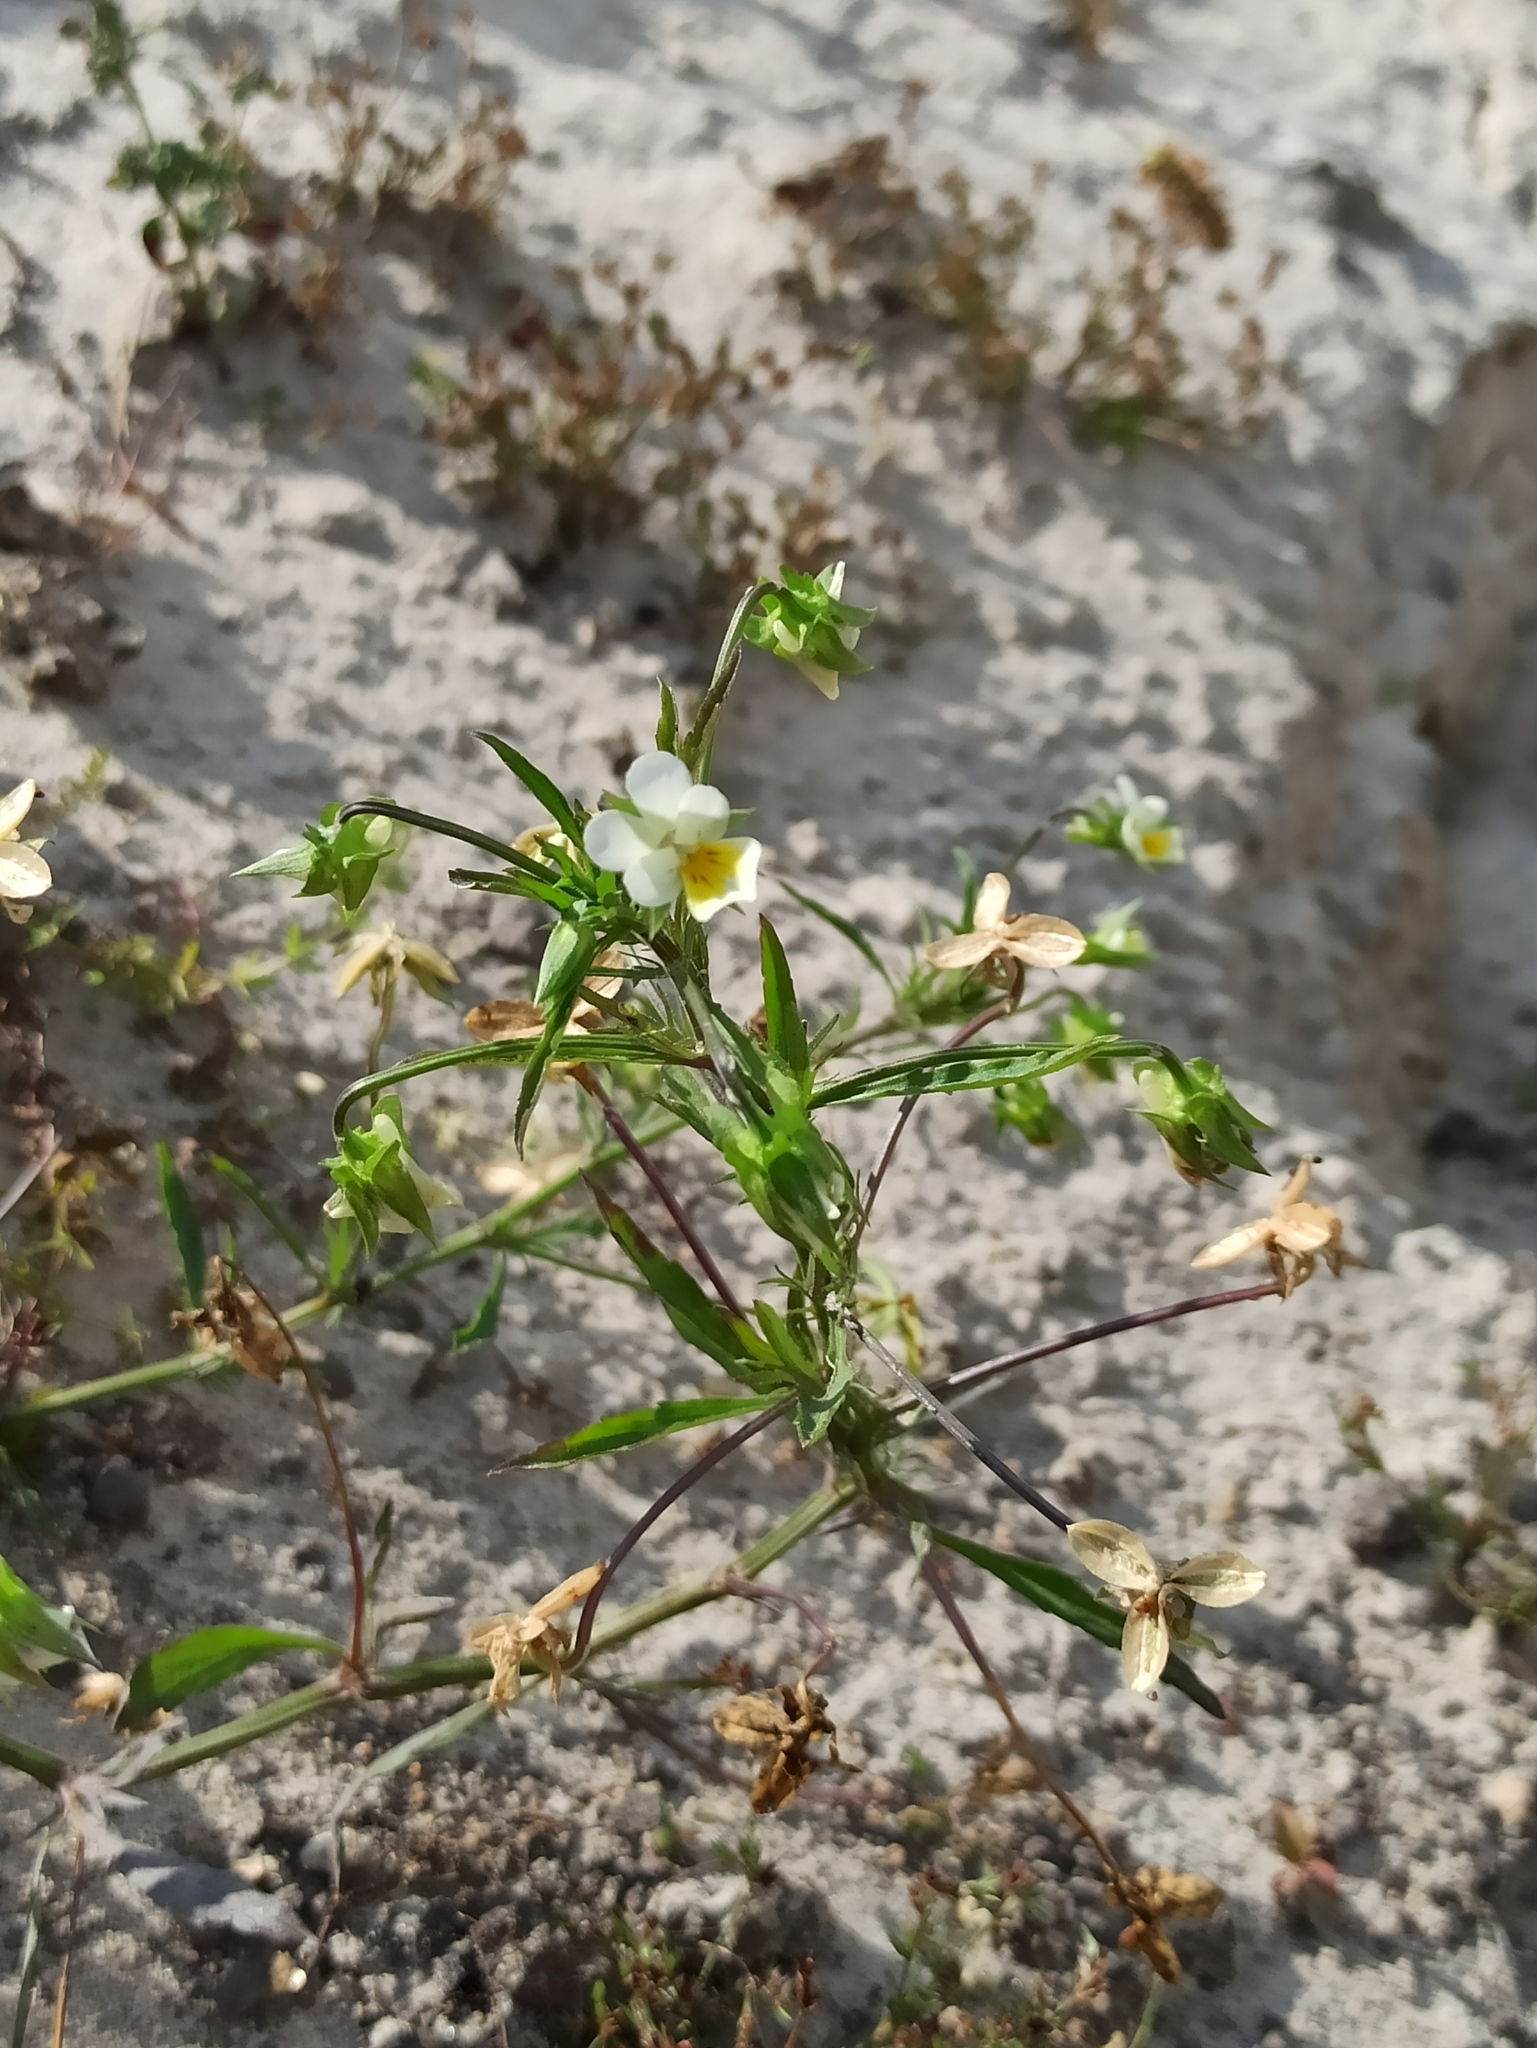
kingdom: Plantae
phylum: Tracheophyta
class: Magnoliopsida
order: Malpighiales
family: Violaceae
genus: Viola
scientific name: Viola arvensis
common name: Field pansy
